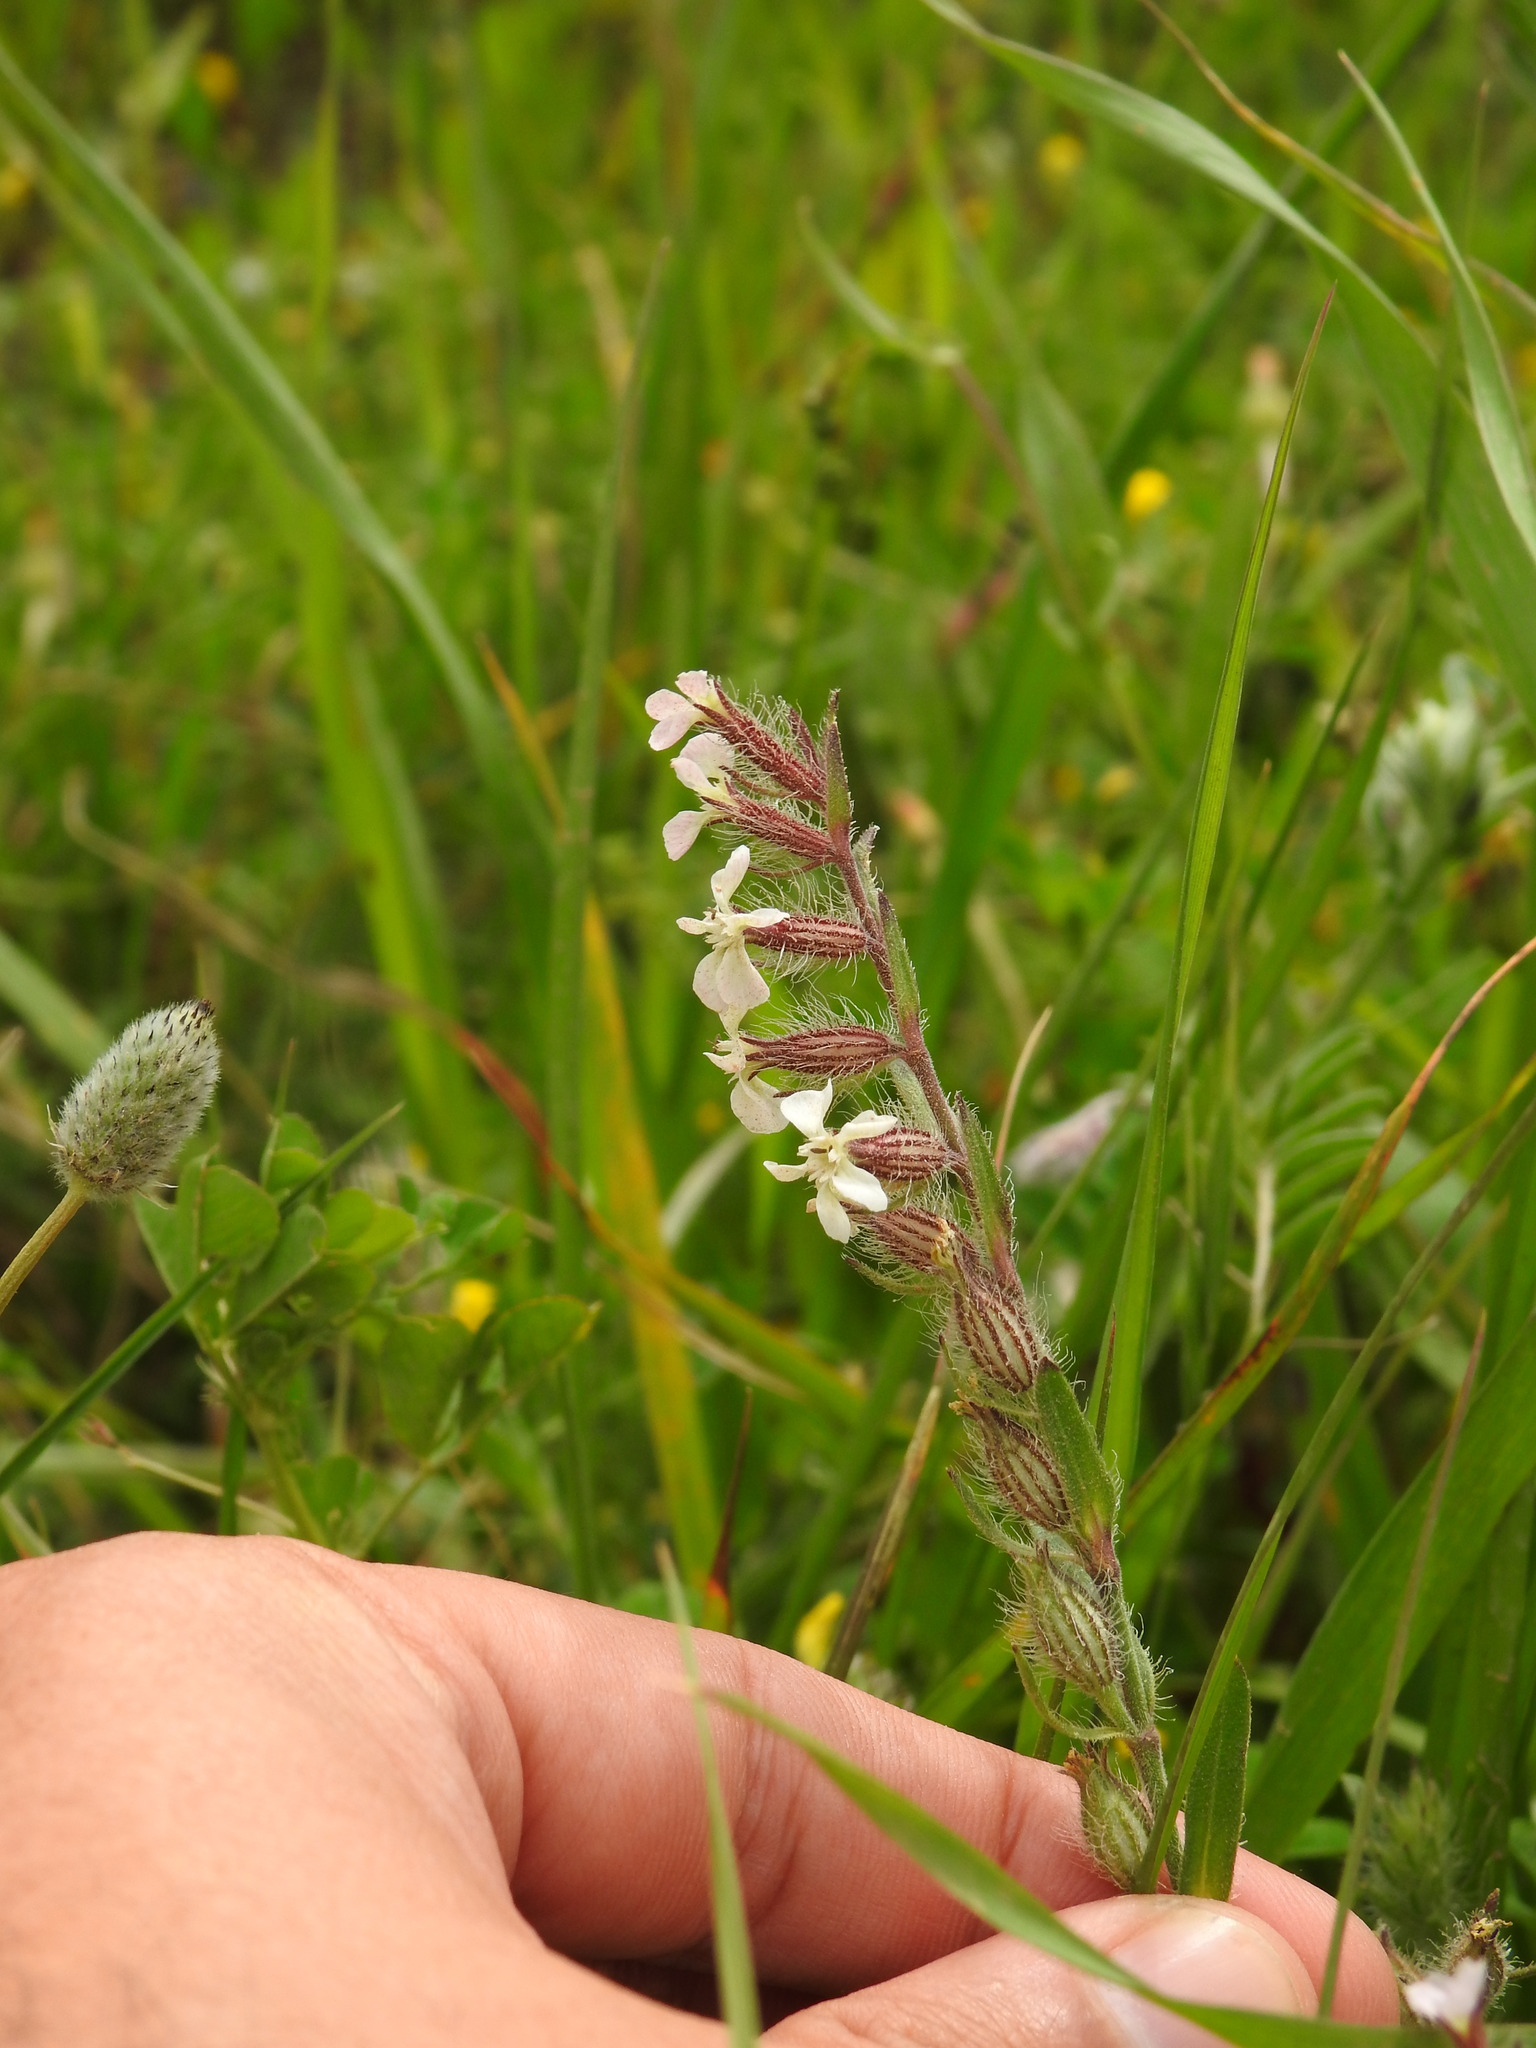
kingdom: Plantae
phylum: Tracheophyta
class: Magnoliopsida
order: Caryophyllales
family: Caryophyllaceae
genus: Silene
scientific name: Silene gallica
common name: Small-flowered catchfly
